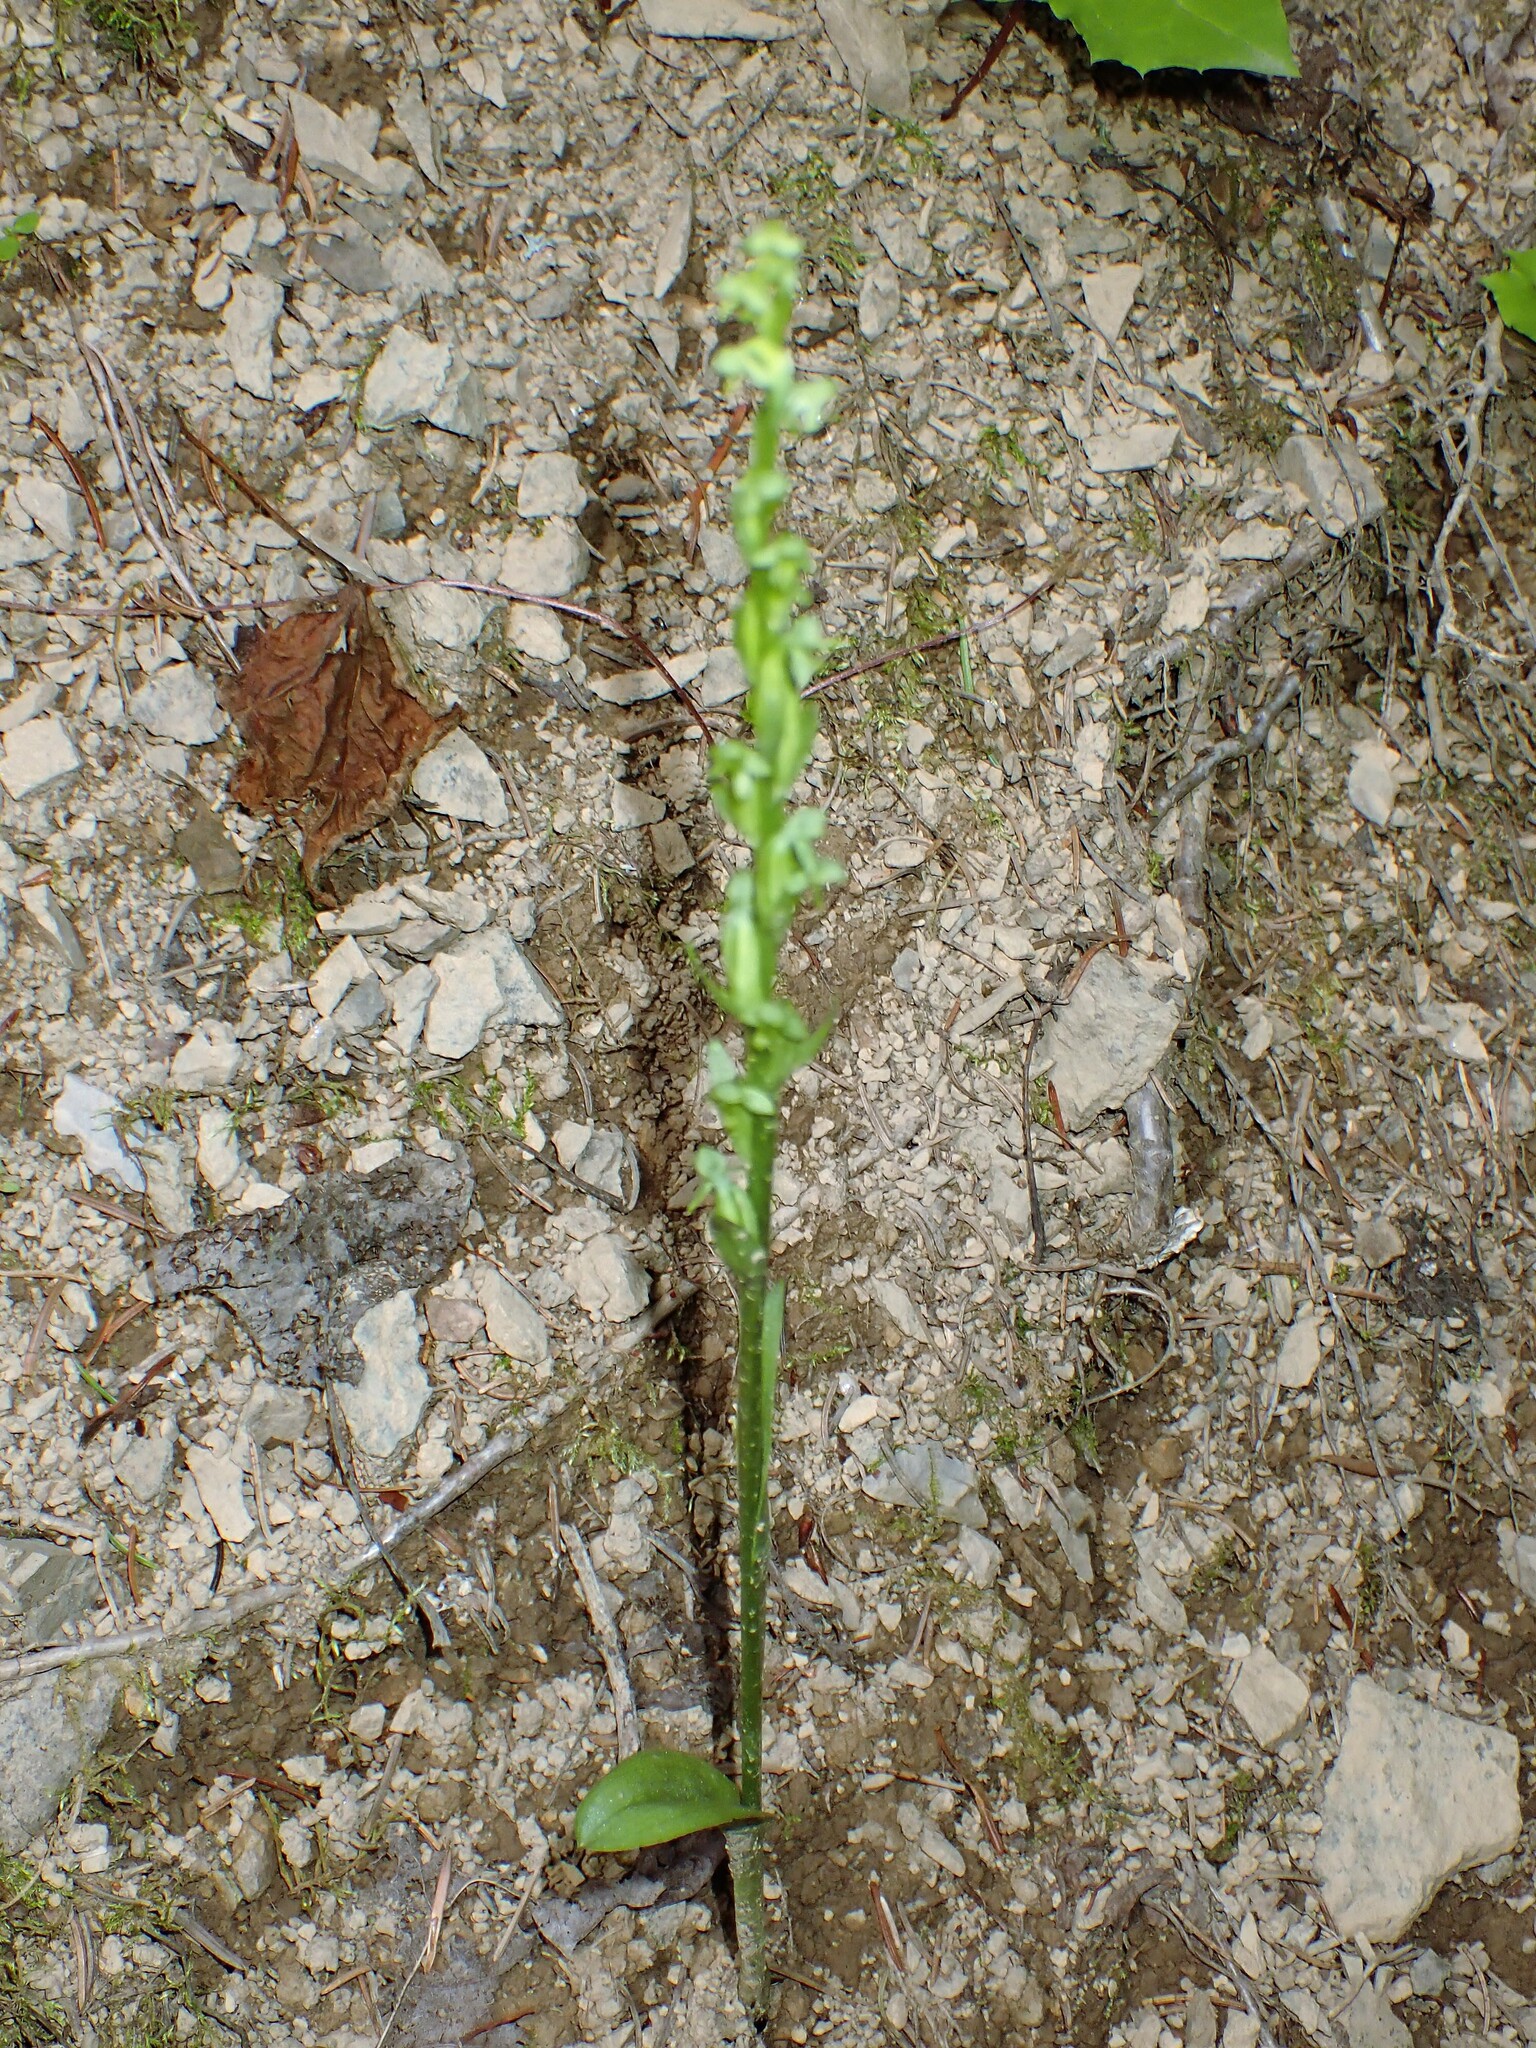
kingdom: Plantae
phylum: Tracheophyta
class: Liliopsida
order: Asparagales
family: Orchidaceae
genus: Platanthera
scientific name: Platanthera aquilonis
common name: Northern green orchid
